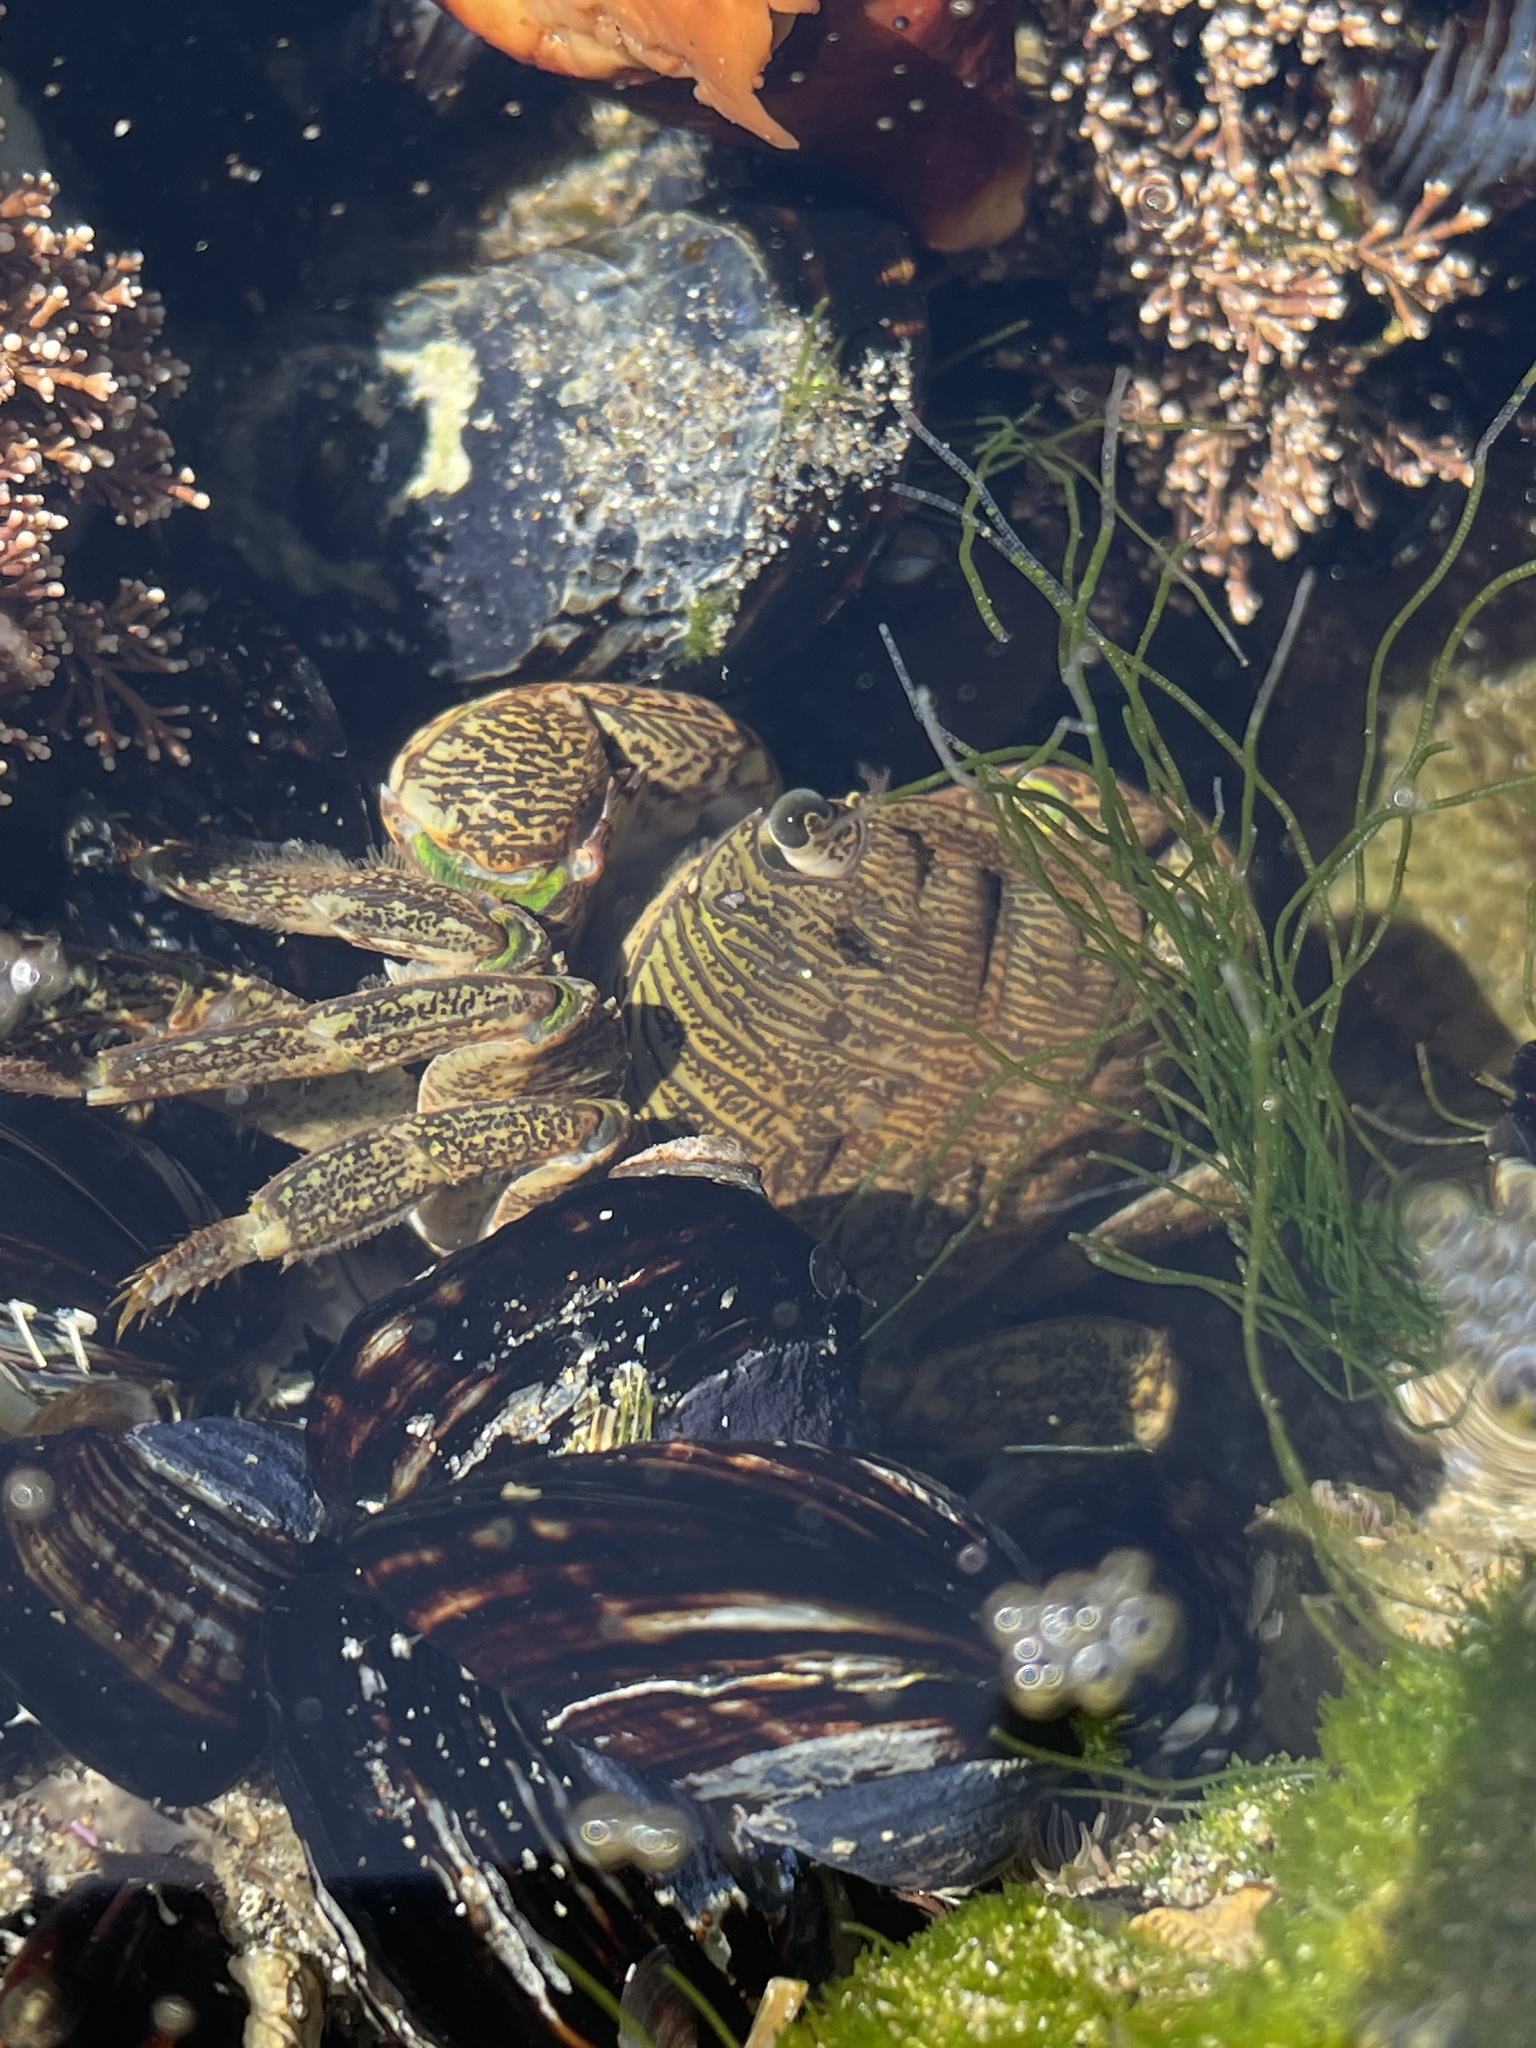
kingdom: Animalia
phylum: Arthropoda
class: Malacostraca
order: Decapoda
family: Grapsidae
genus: Pachygrapsus
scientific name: Pachygrapsus crassipes
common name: Striped shore crab
